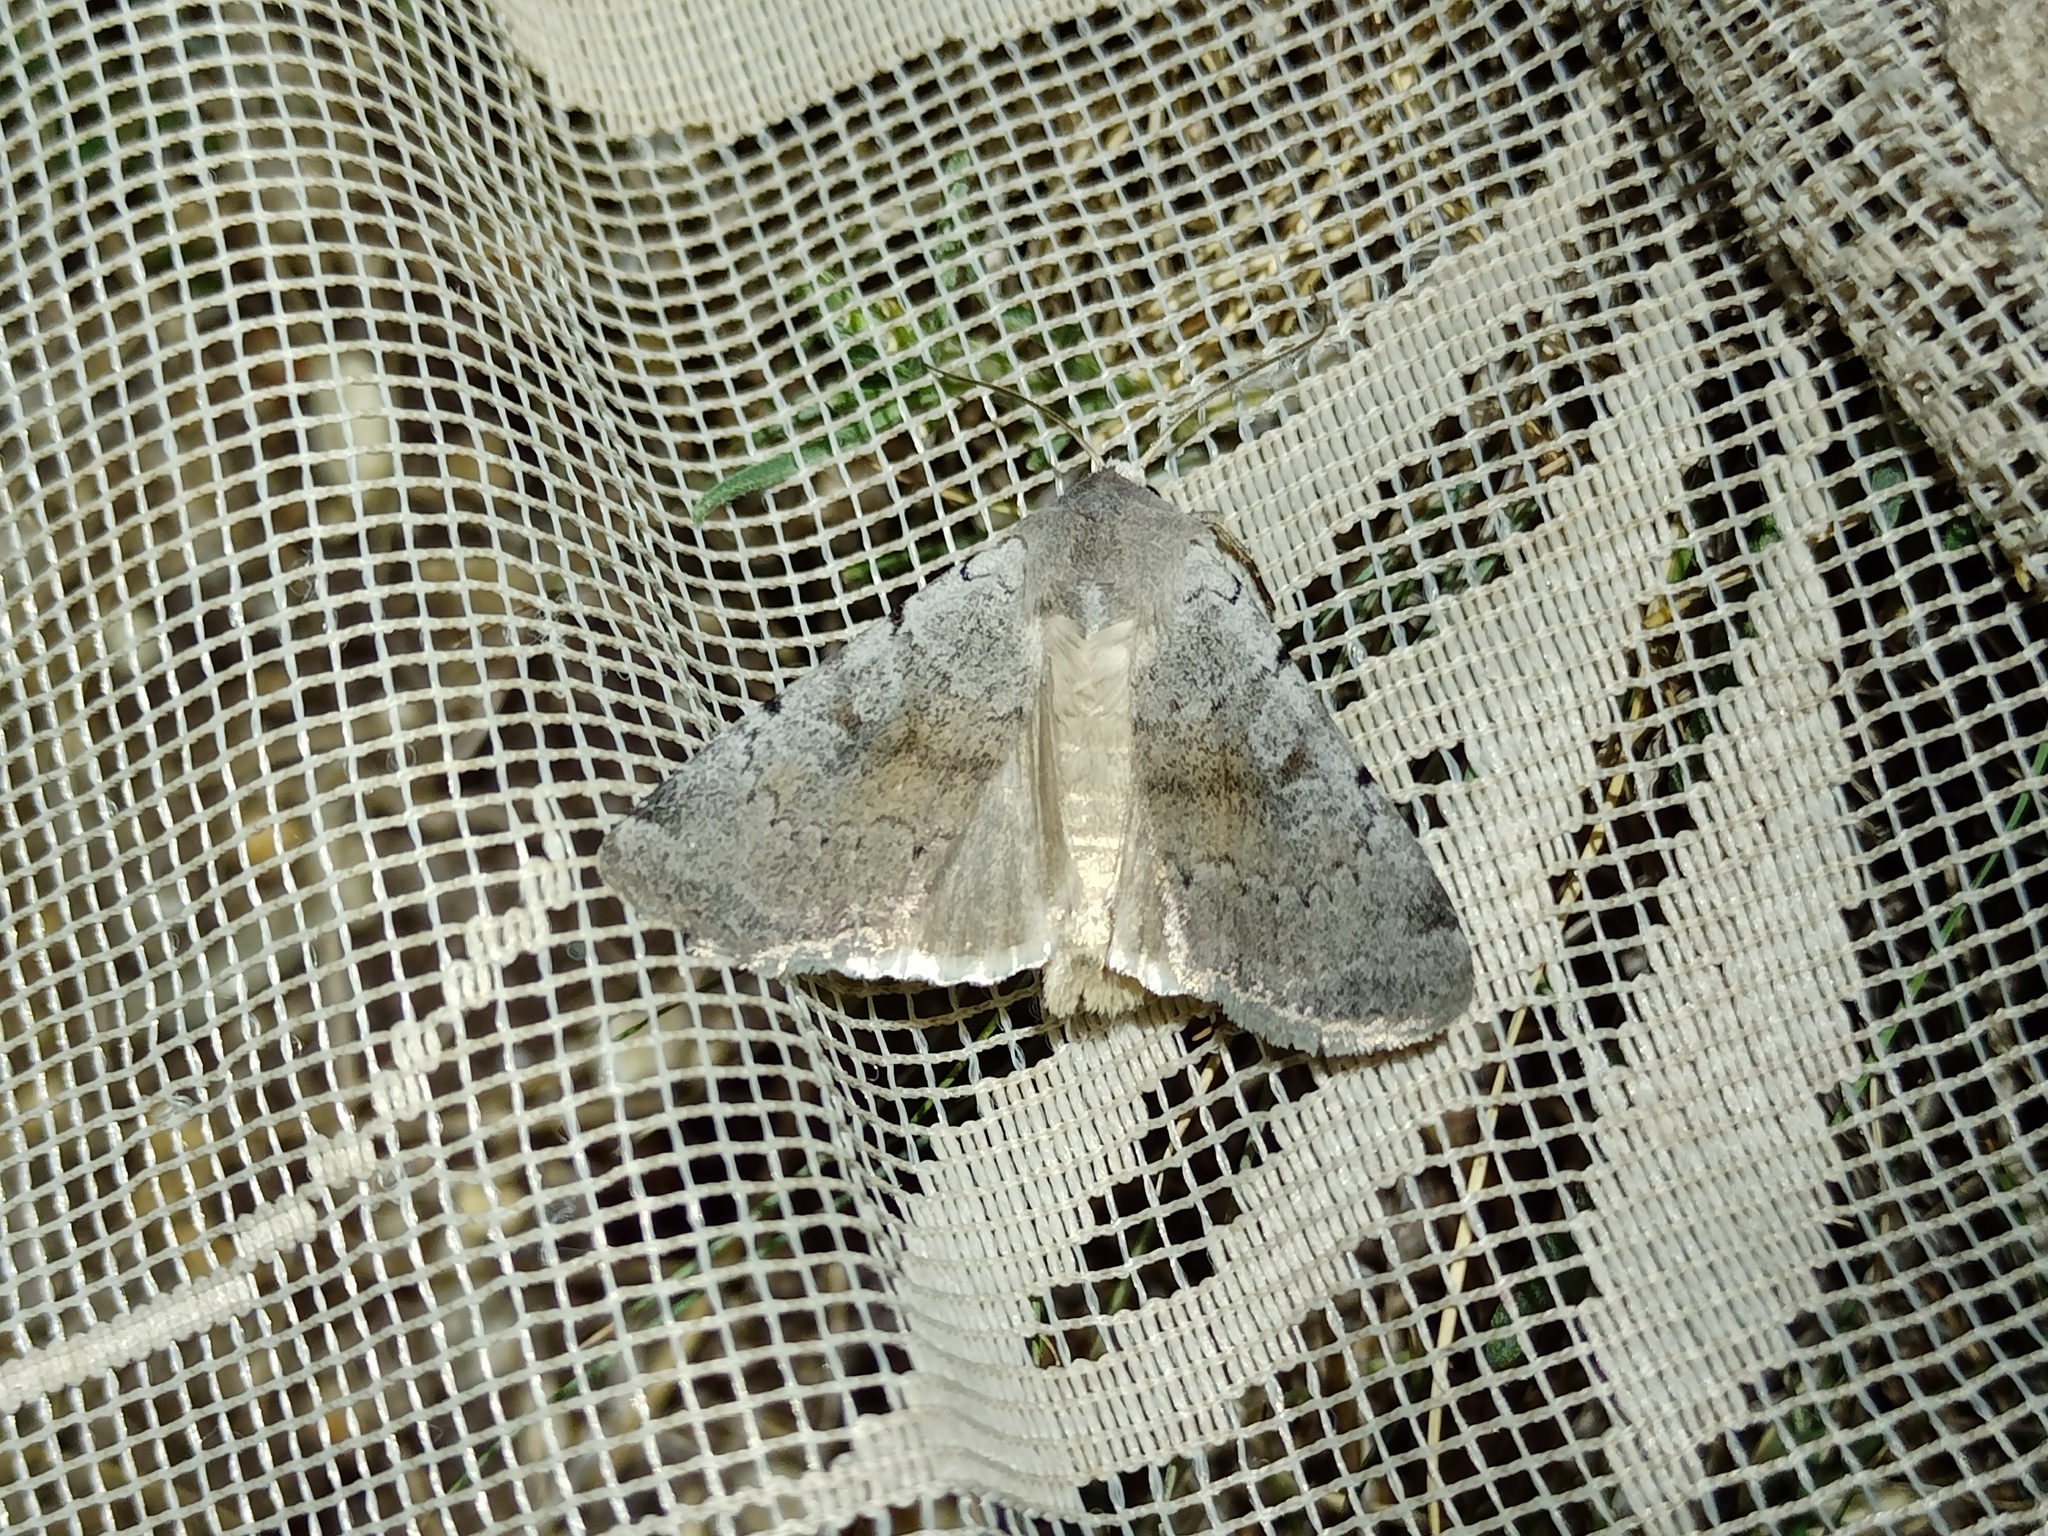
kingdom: Animalia
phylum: Arthropoda
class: Insecta
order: Lepidoptera
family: Noctuidae
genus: Xestia
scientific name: Xestia ashworthii
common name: Ashworth's rustic
